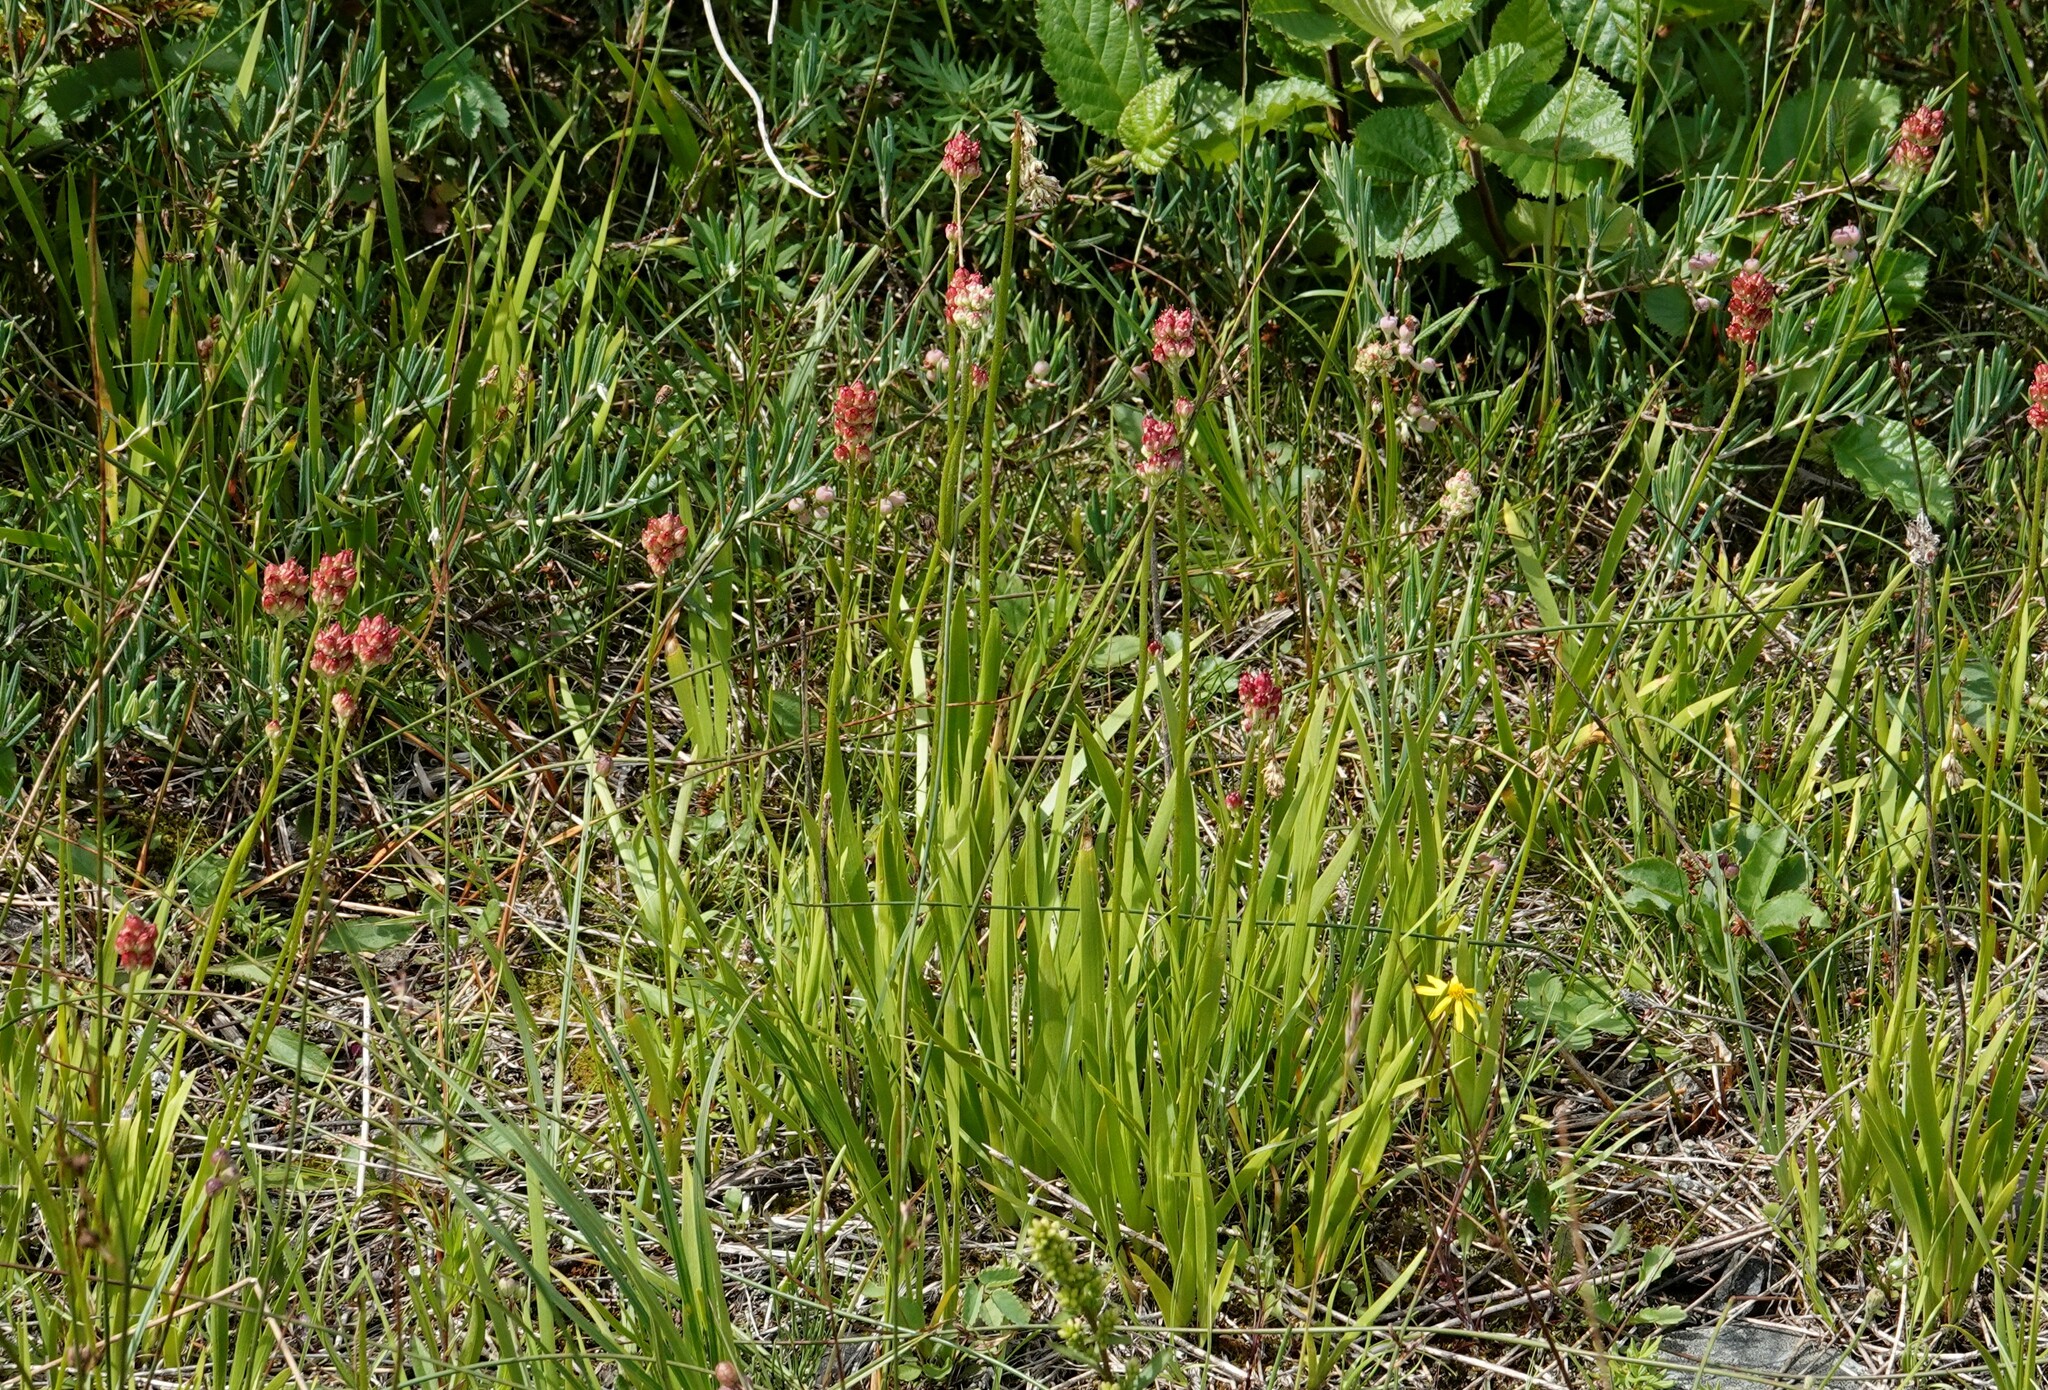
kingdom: Plantae
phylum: Tracheophyta
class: Liliopsida
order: Alismatales
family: Tofieldiaceae
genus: Triantha
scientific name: Triantha glutinosa
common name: Glutinous tofieldia
